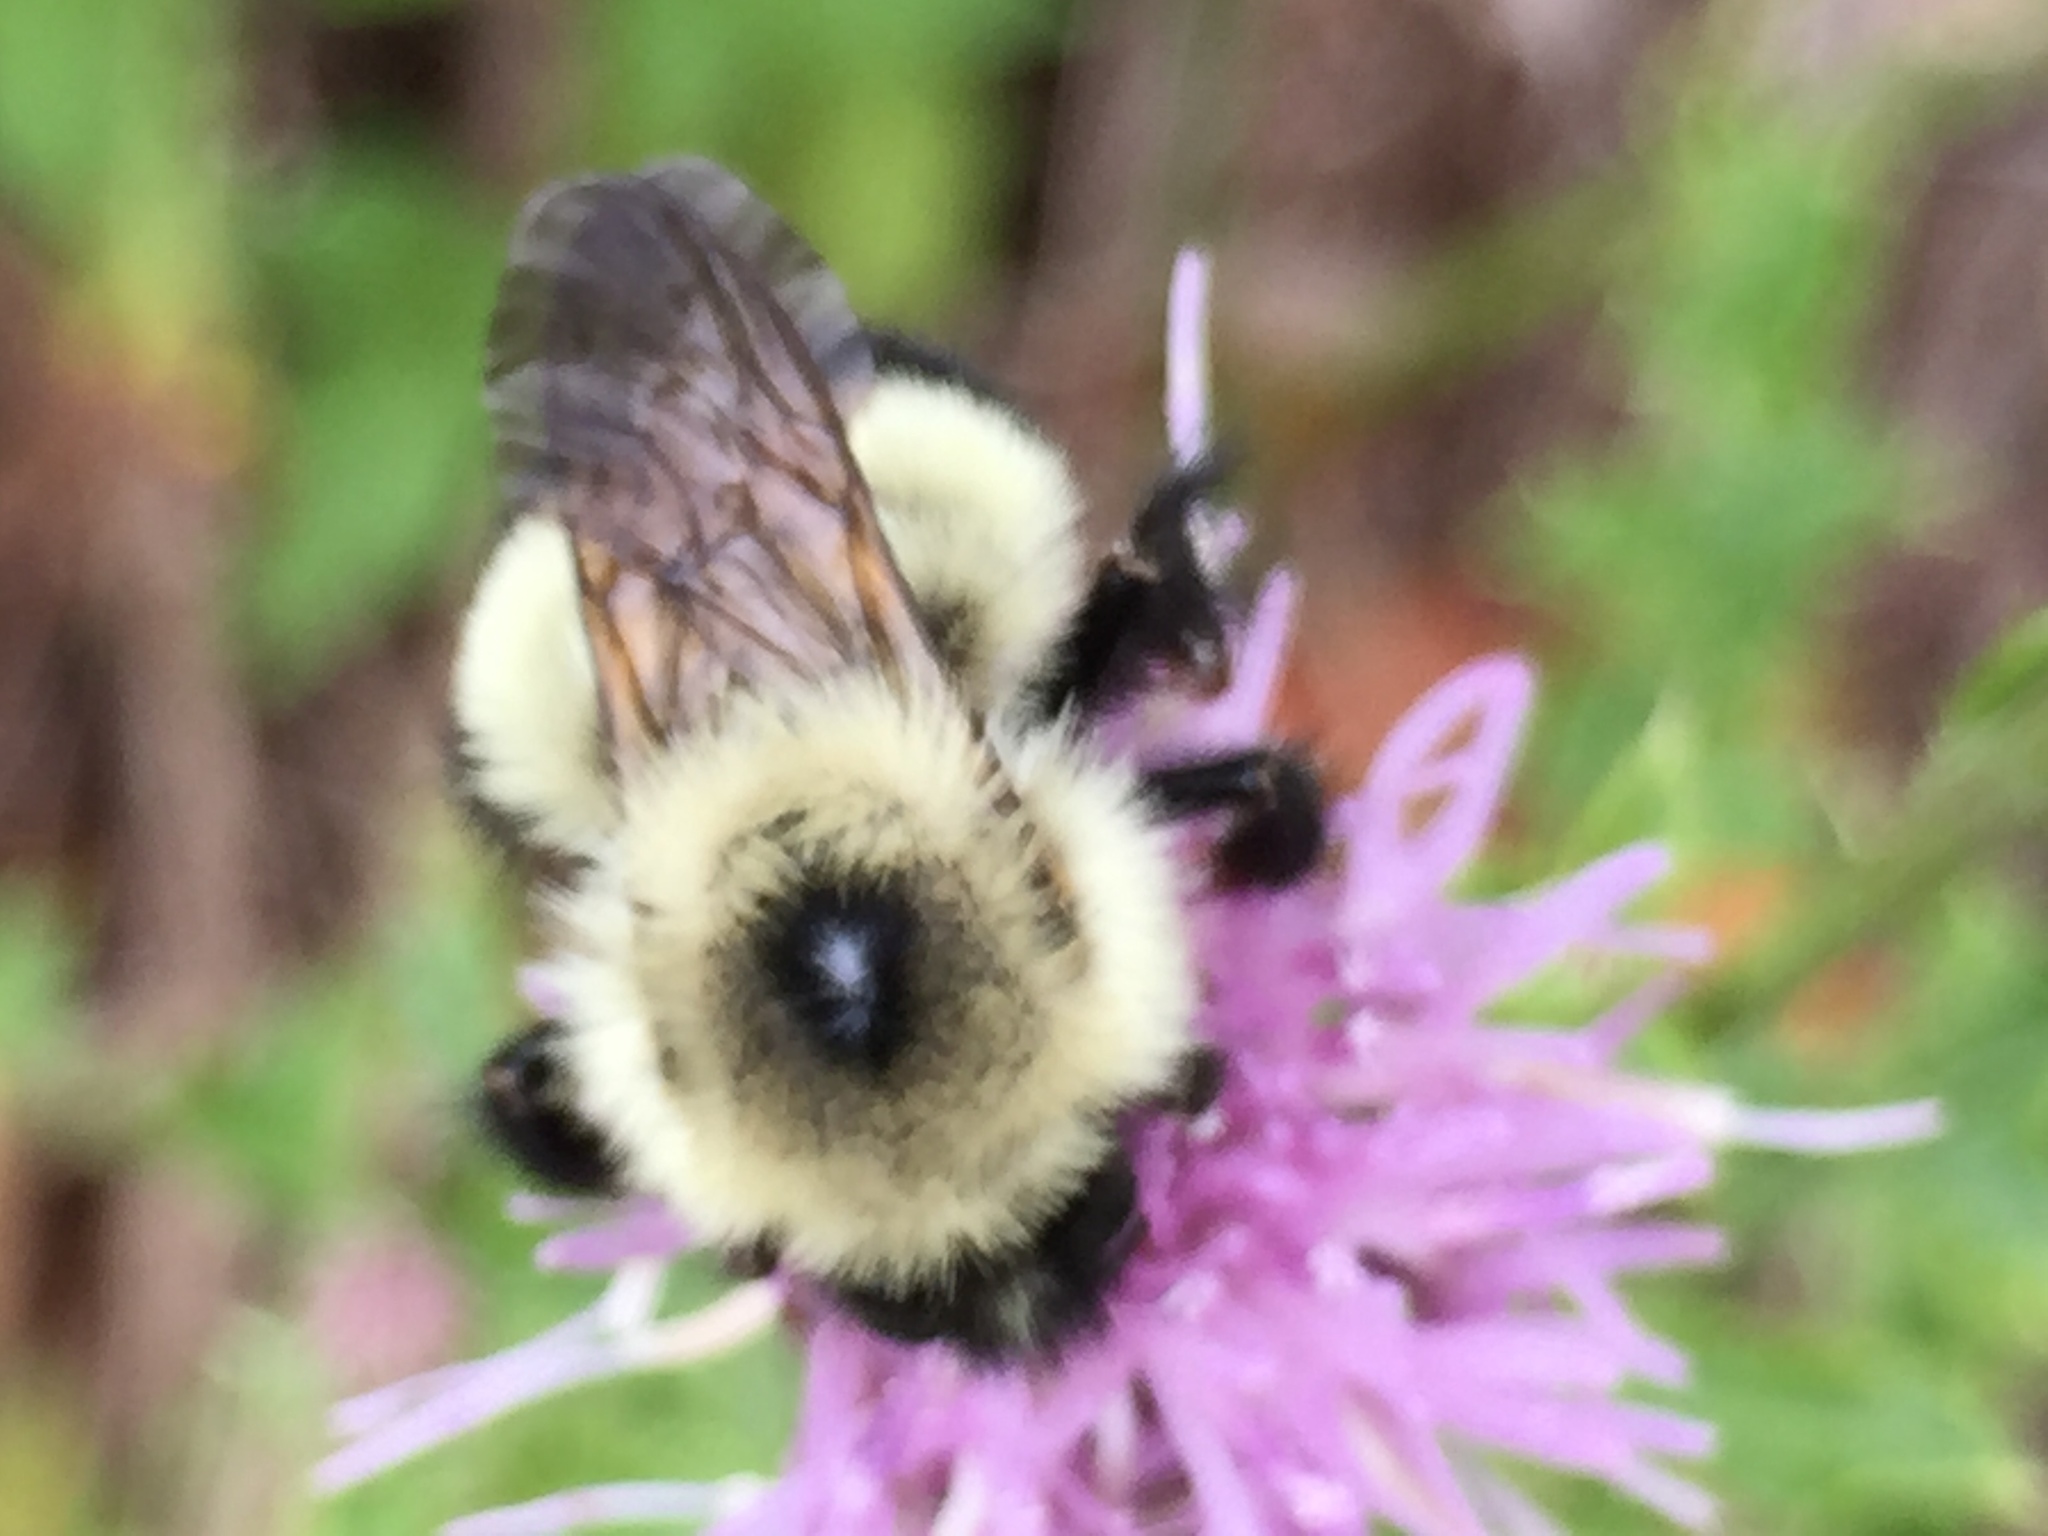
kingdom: Animalia
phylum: Arthropoda
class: Insecta
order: Hymenoptera
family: Apidae
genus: Bombus
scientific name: Bombus vagans
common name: Half-black bumble bee
